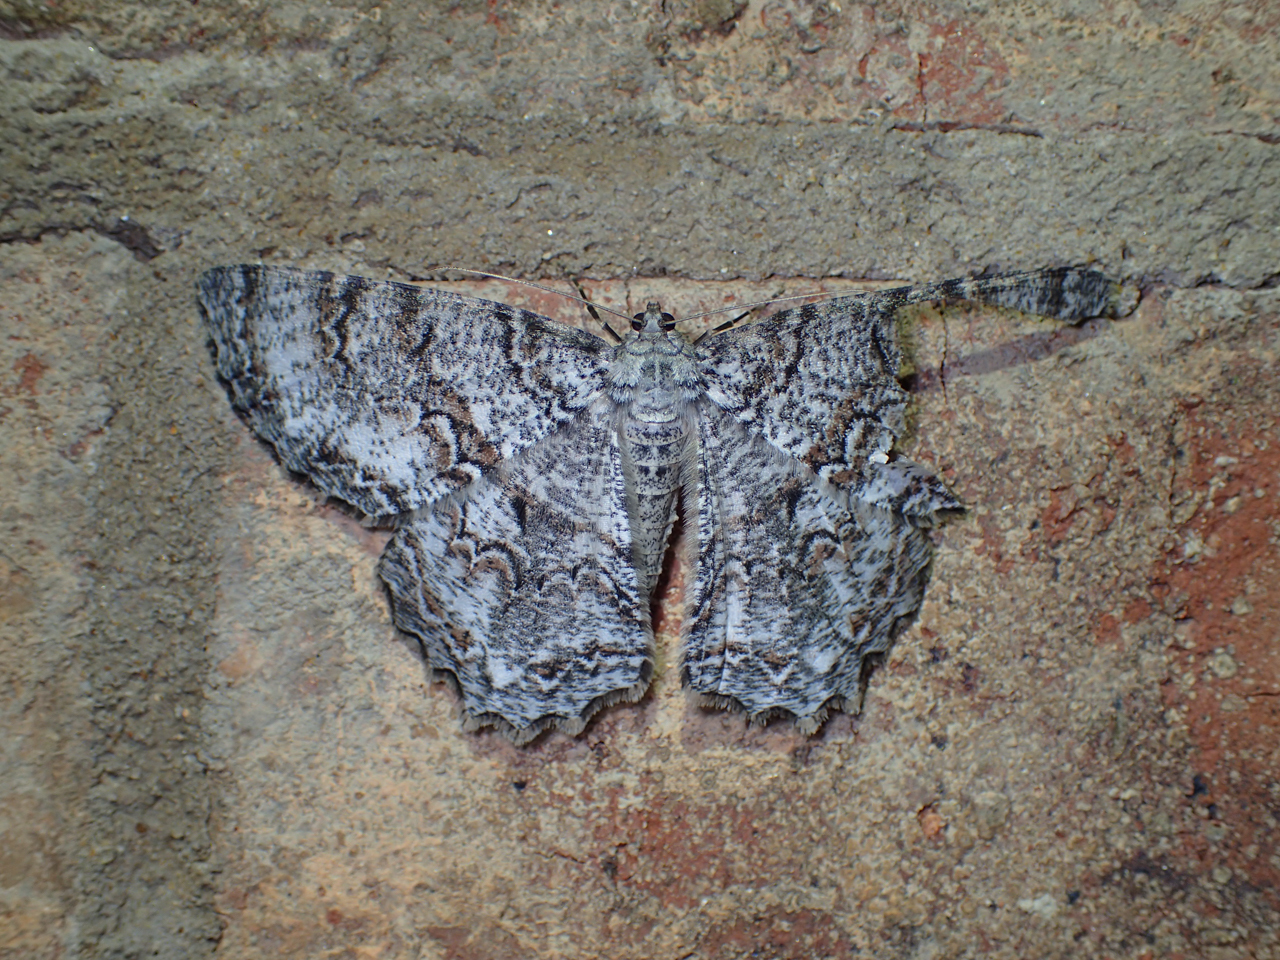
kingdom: Animalia
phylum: Arthropoda
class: Insecta
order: Lepidoptera
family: Geometridae
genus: Epimecis
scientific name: Epimecis hortaria
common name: Tulip-tree beauty
